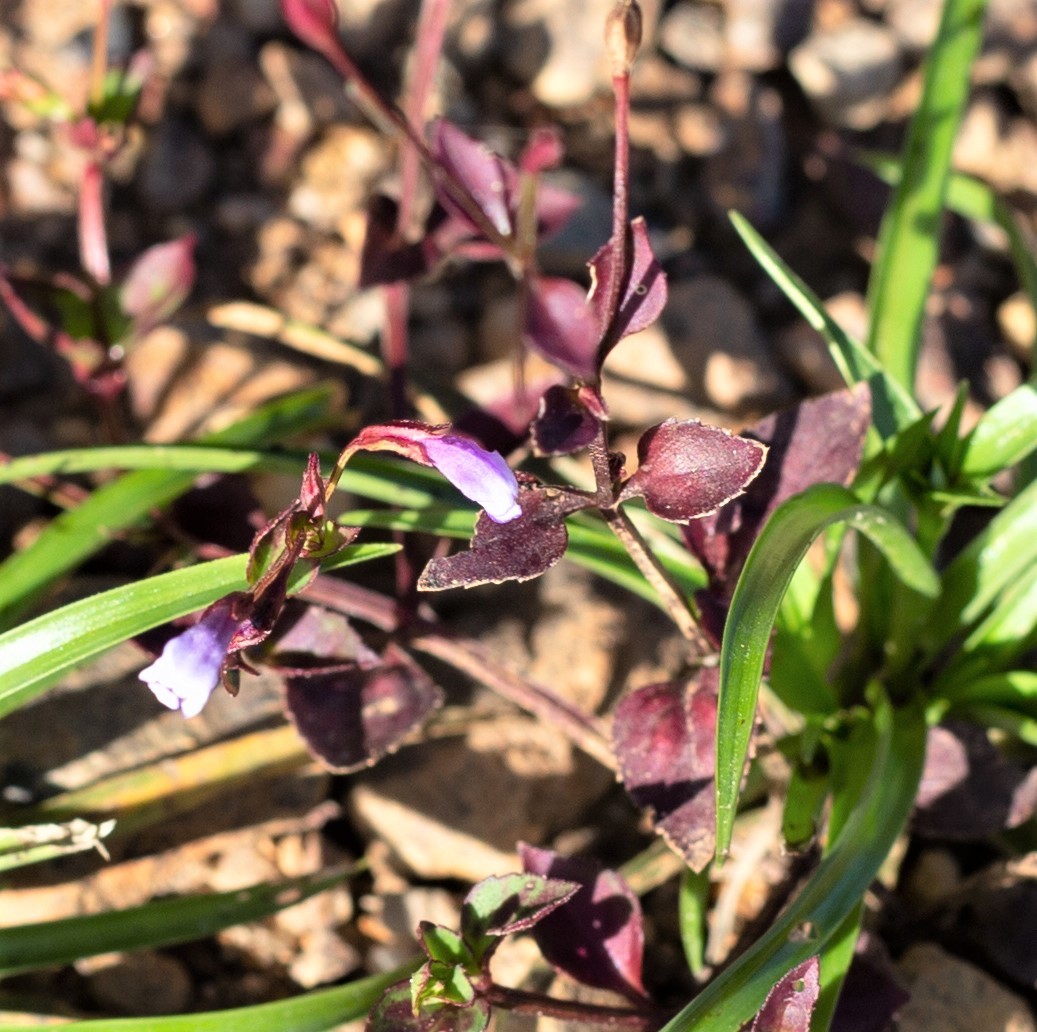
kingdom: Plantae
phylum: Tracheophyta
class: Magnoliopsida
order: Lamiales
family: Linderniaceae
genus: Torenia
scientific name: Torenia crustacea
